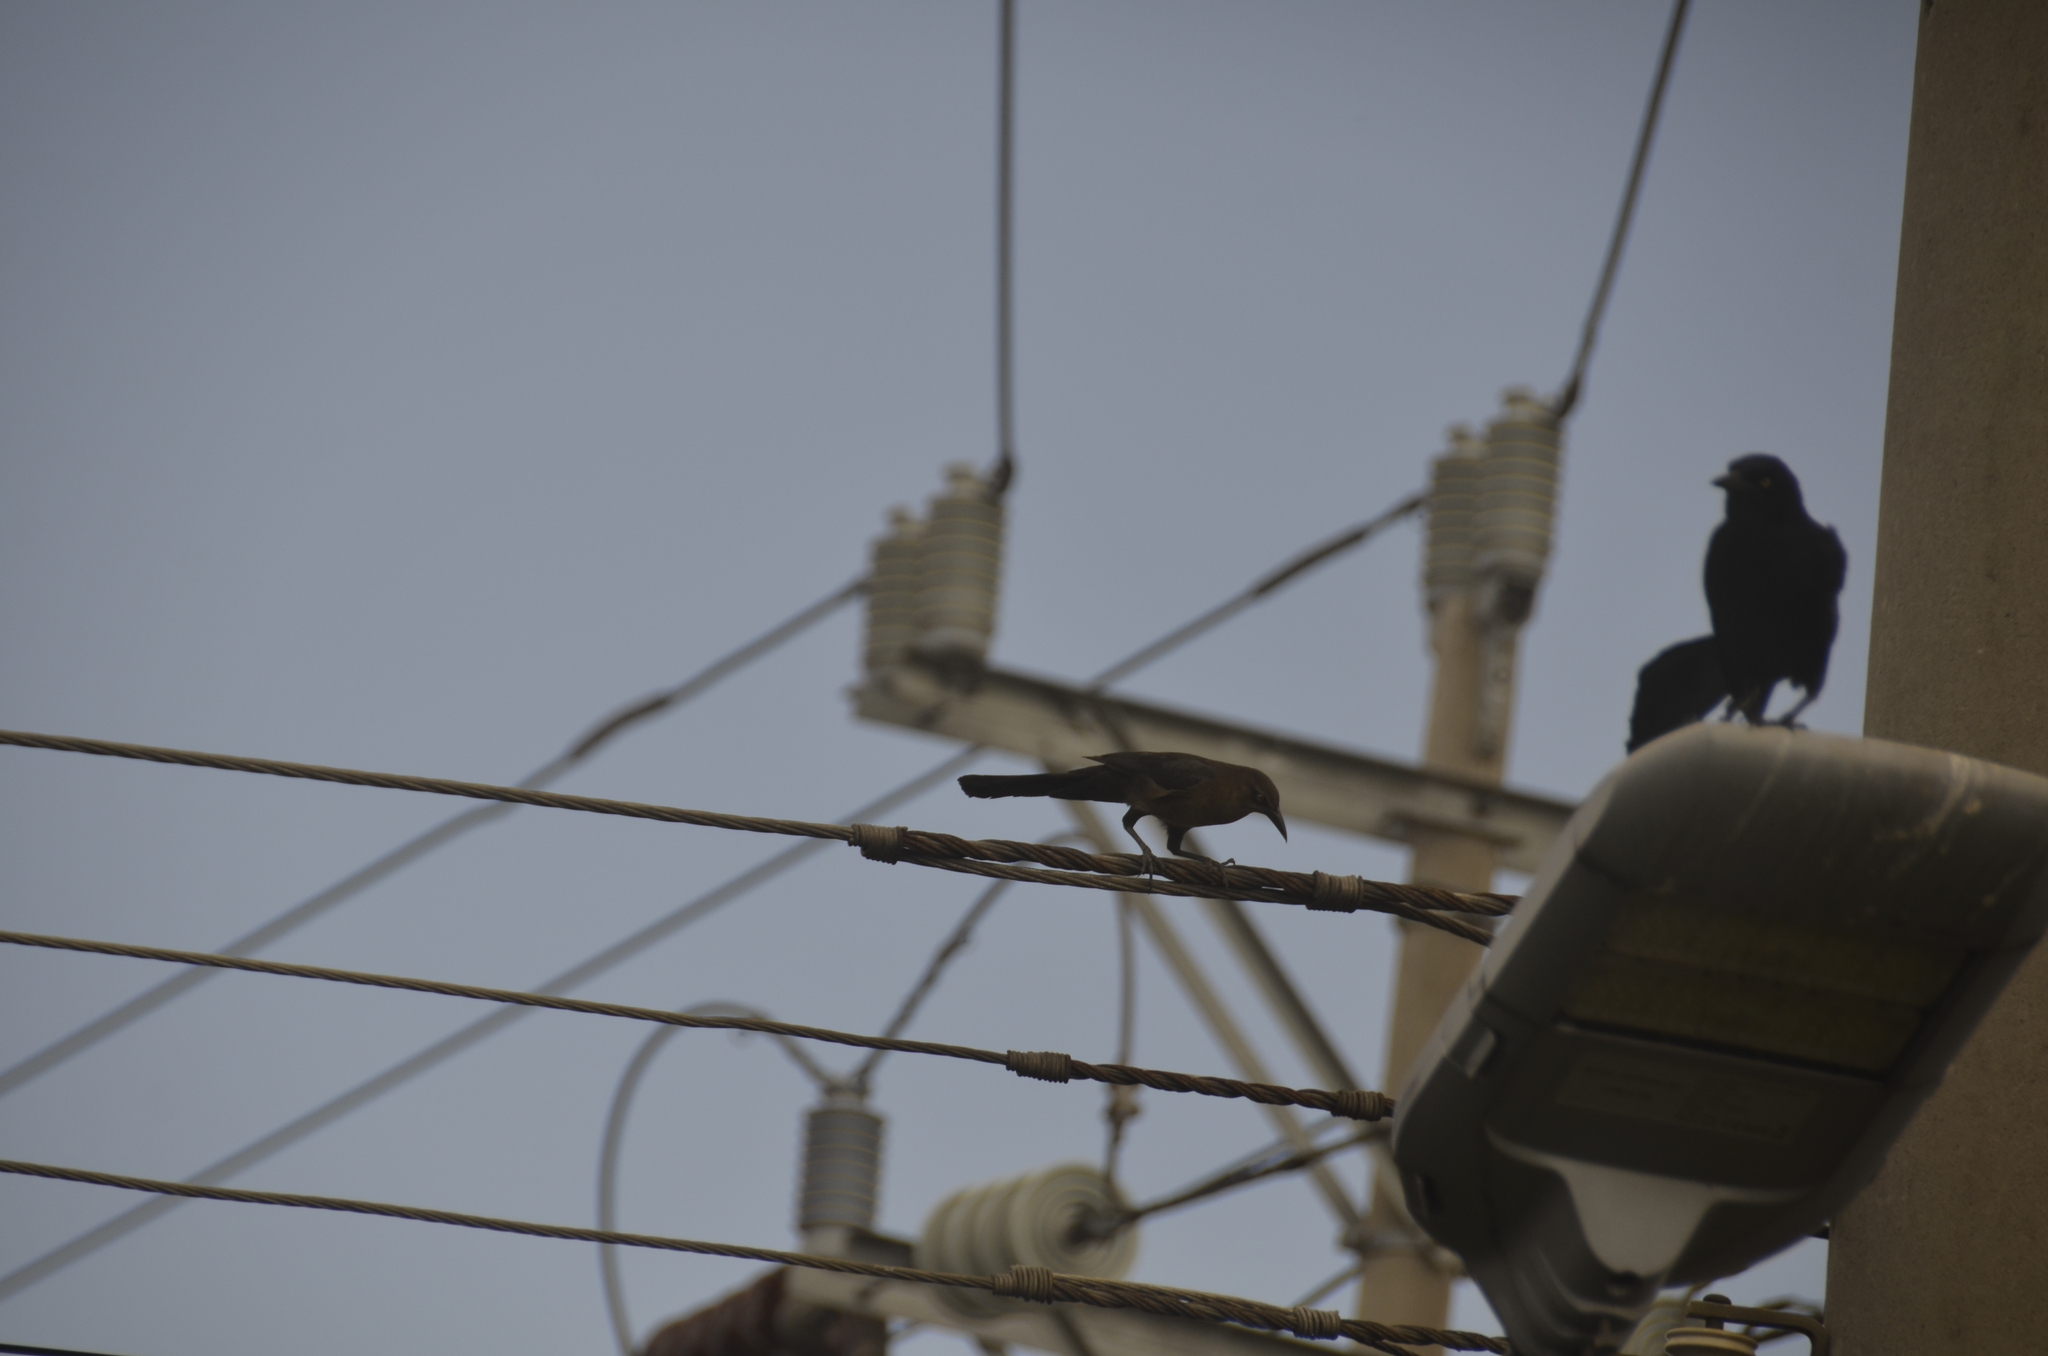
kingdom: Animalia
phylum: Chordata
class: Aves
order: Passeriformes
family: Icteridae
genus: Quiscalus
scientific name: Quiscalus mexicanus
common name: Great-tailed grackle
